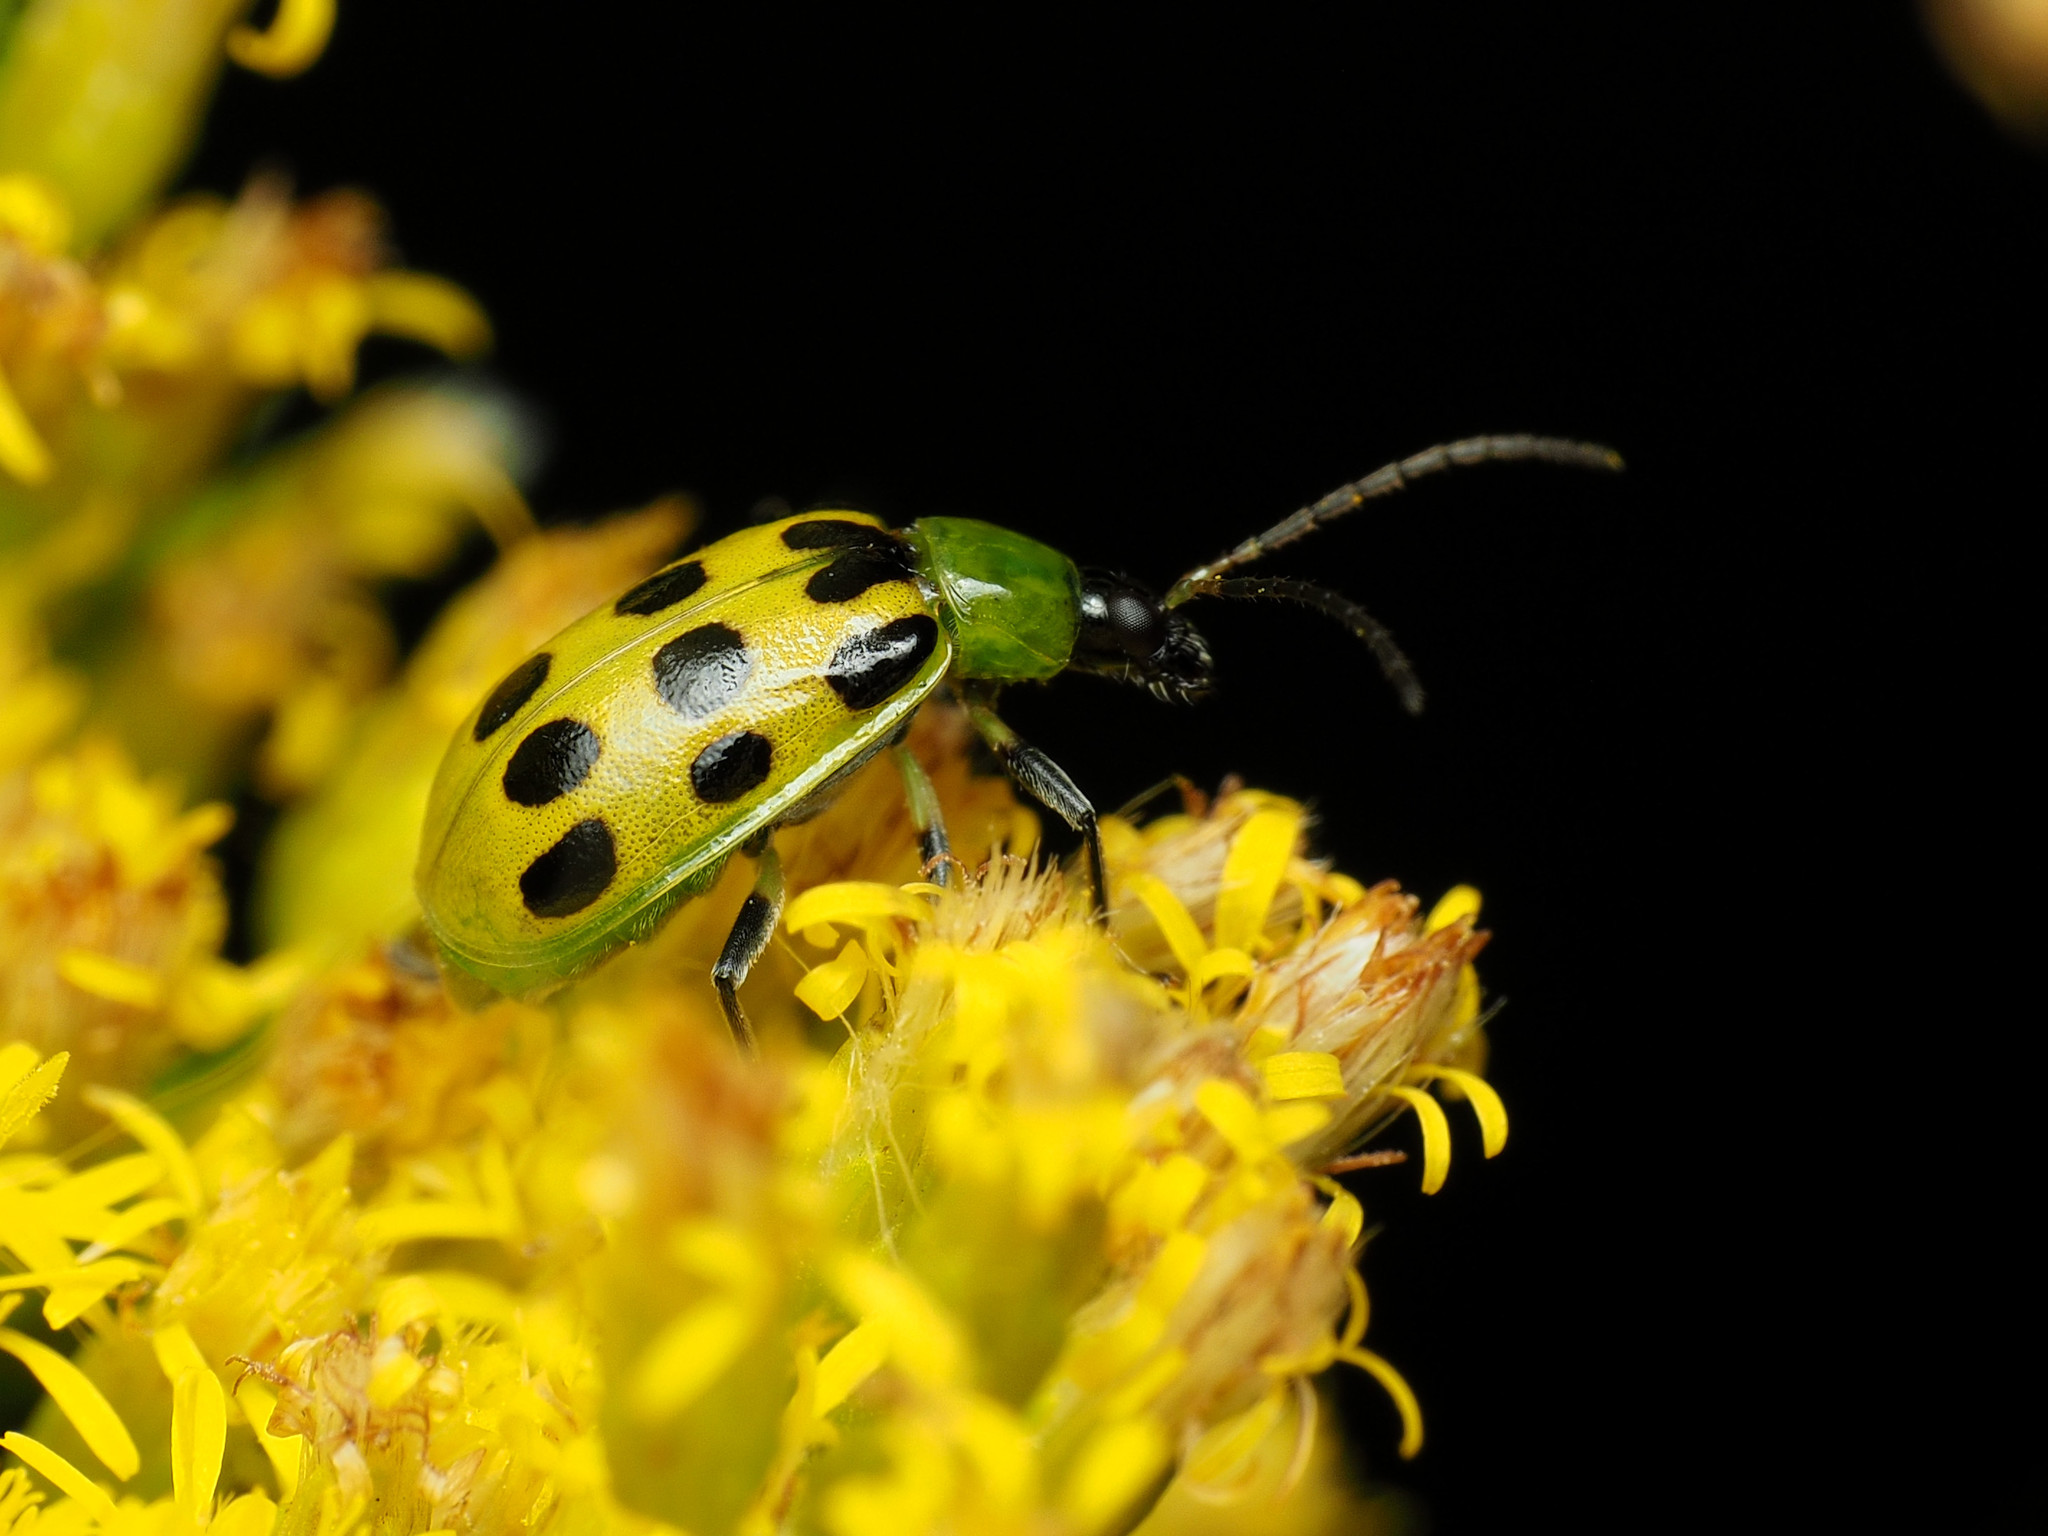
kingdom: Animalia
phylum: Arthropoda
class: Insecta
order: Coleoptera
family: Chrysomelidae
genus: Diabrotica
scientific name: Diabrotica undecimpunctata
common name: Spotted cucumber beetle
